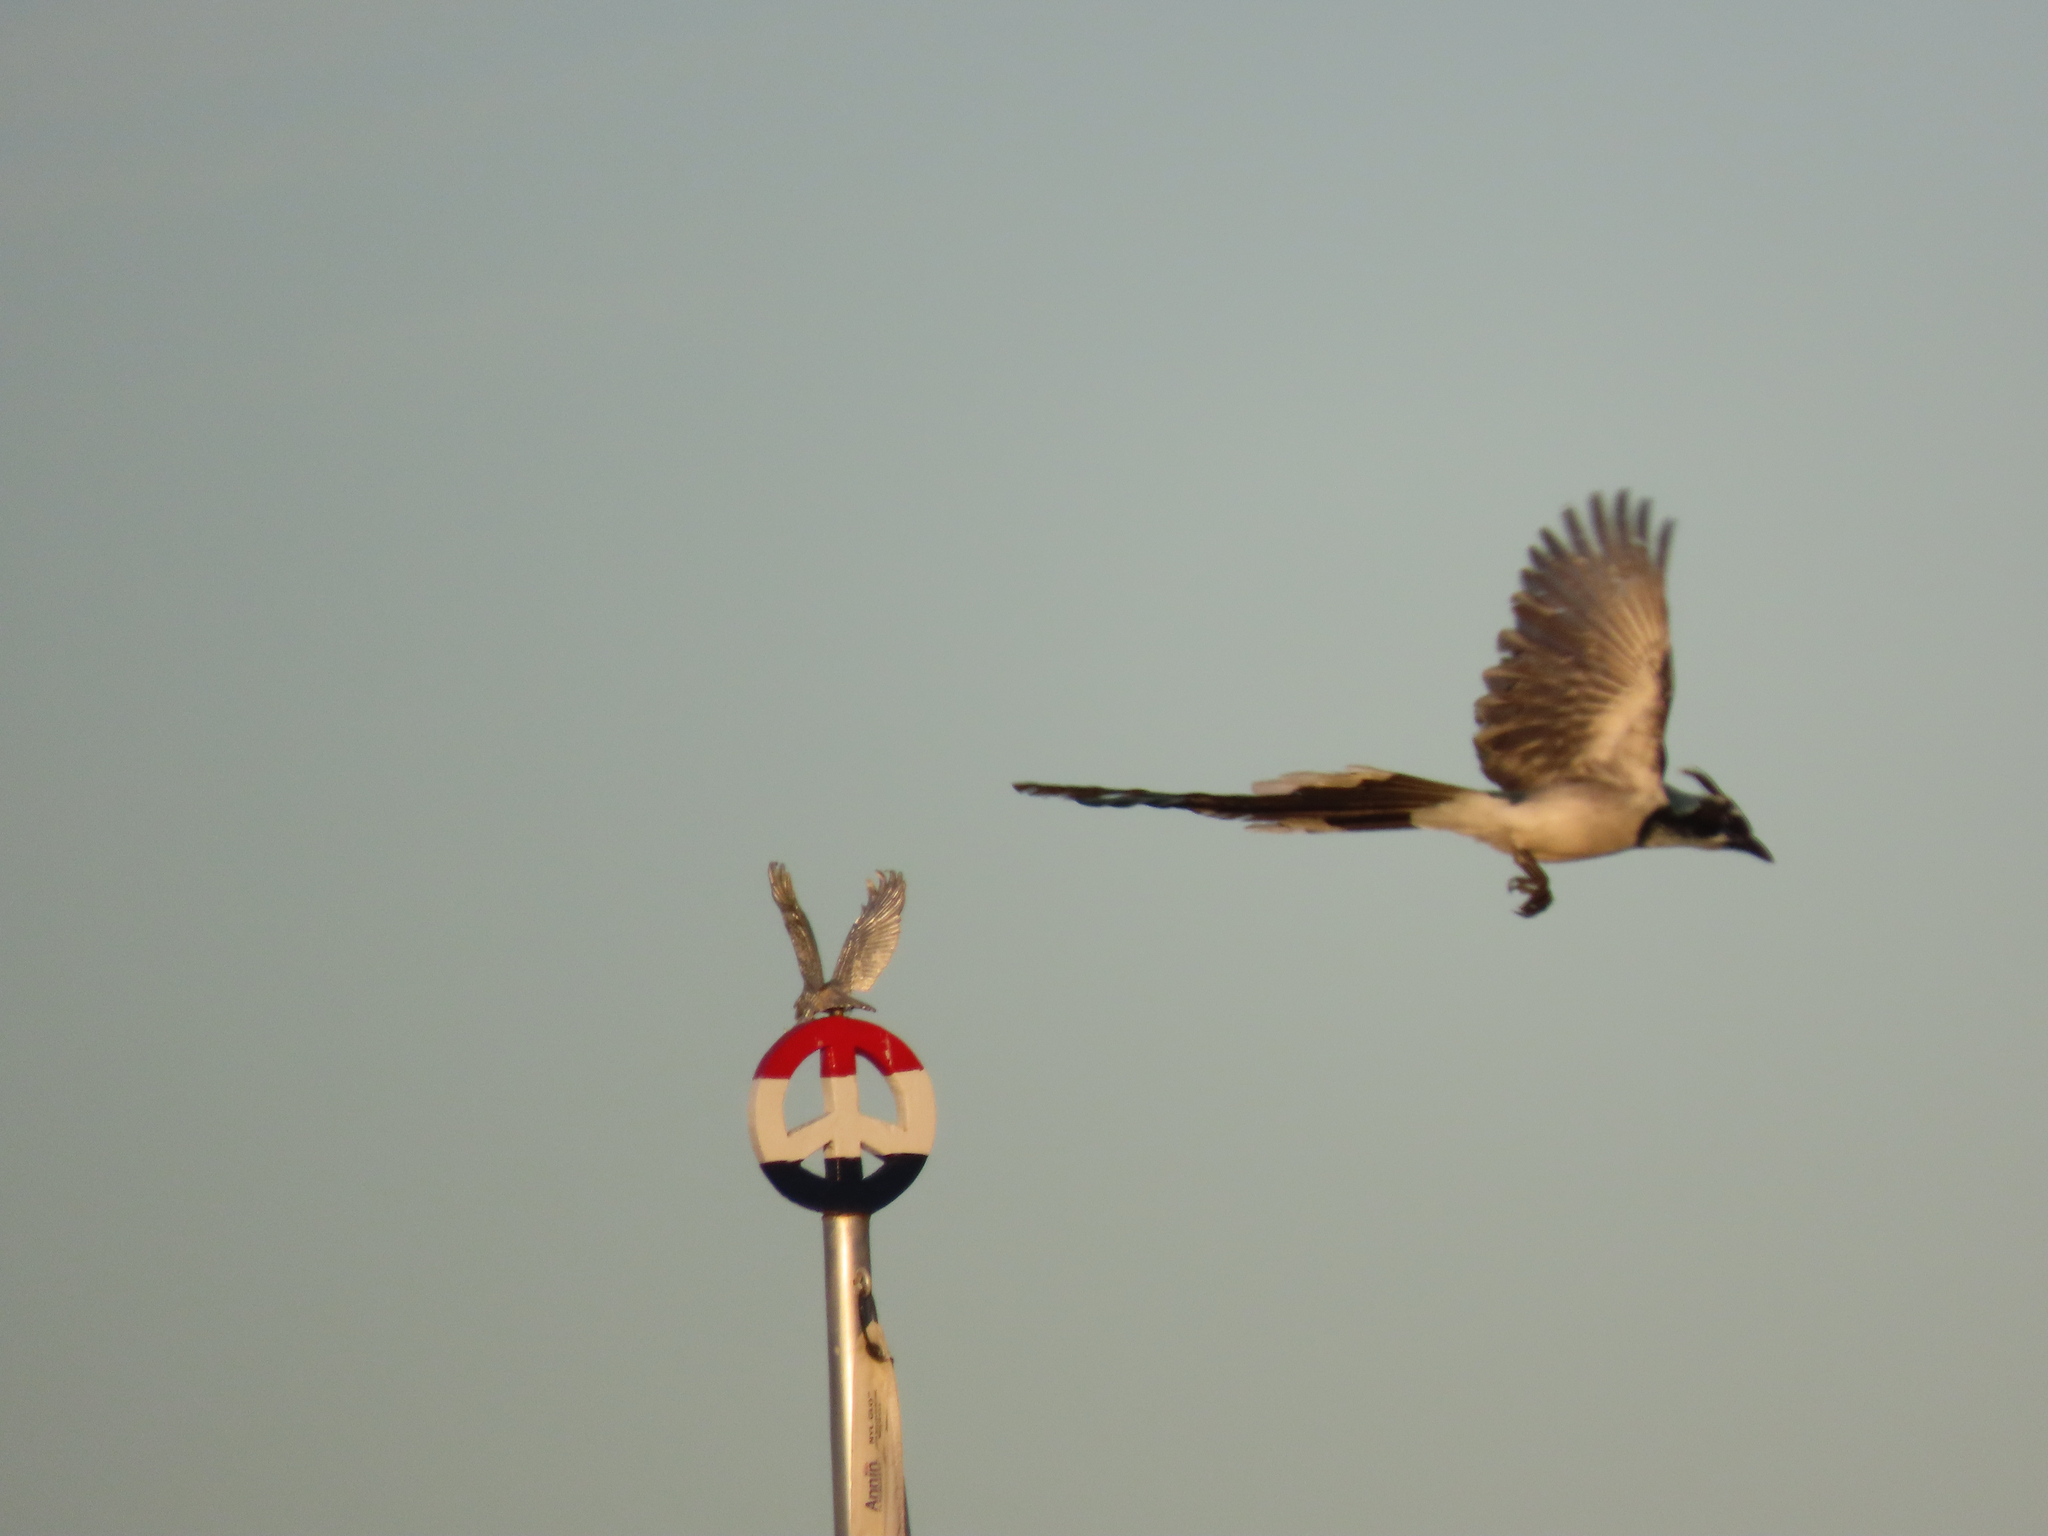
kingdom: Animalia
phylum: Chordata
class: Aves
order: Passeriformes
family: Corvidae
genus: Calocitta
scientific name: Calocitta colliei
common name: Black-throated magpie-jay
